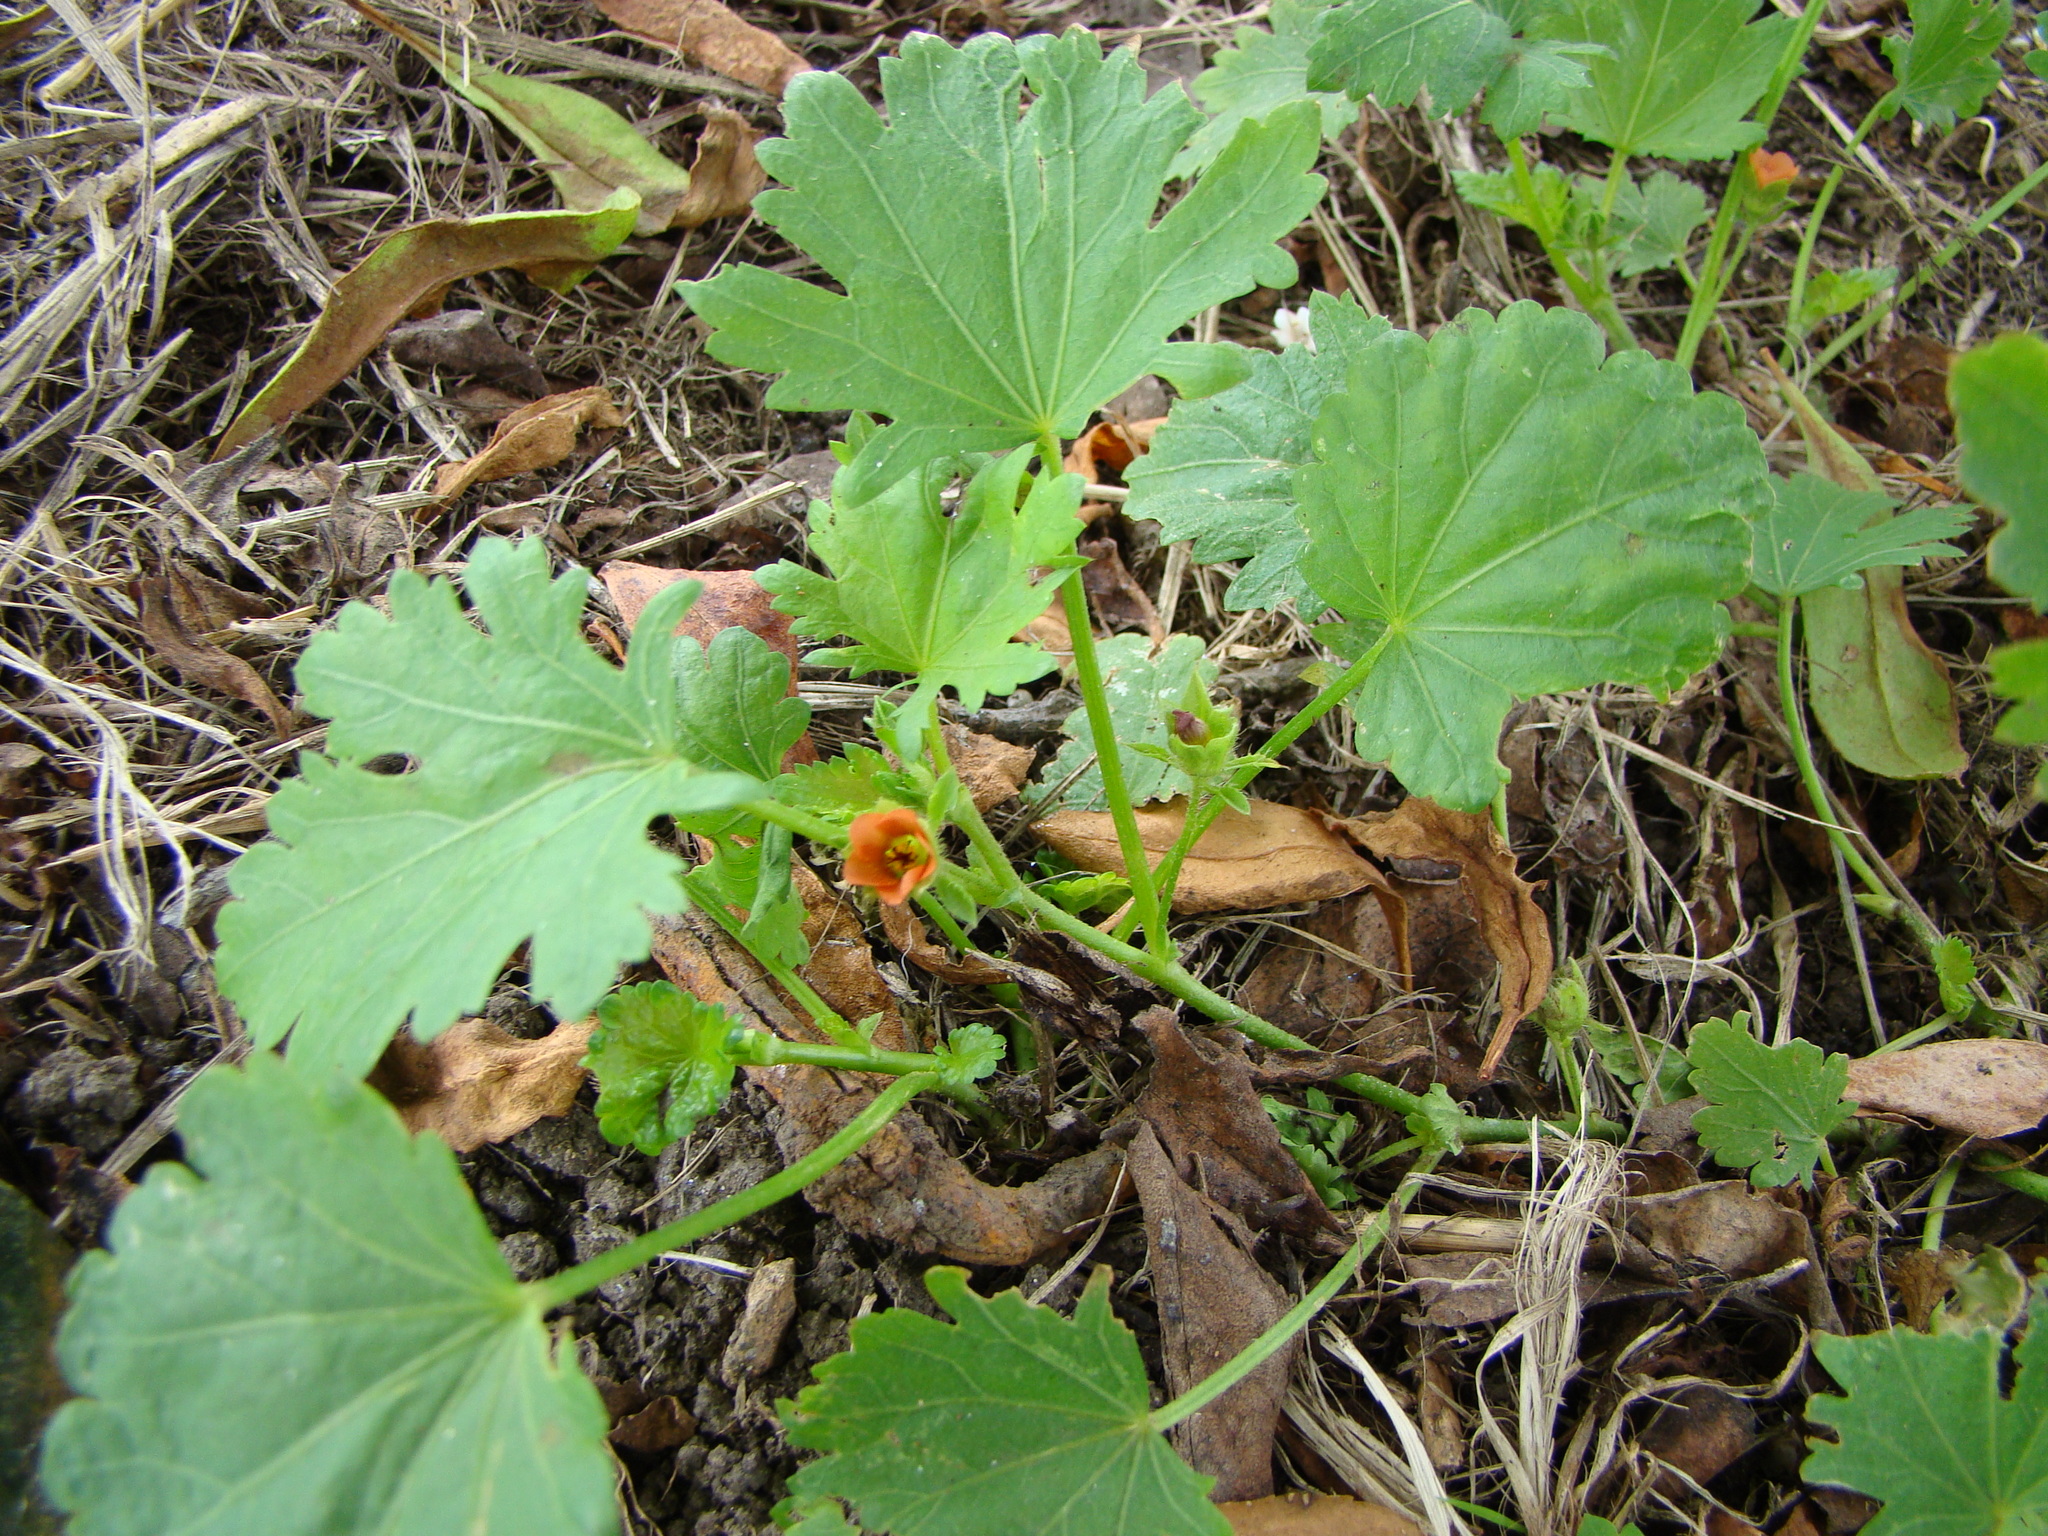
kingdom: Plantae
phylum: Tracheophyta
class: Magnoliopsida
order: Malvales
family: Malvaceae
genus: Modiola
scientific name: Modiola caroliniana
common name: Carolina bristlemallow
